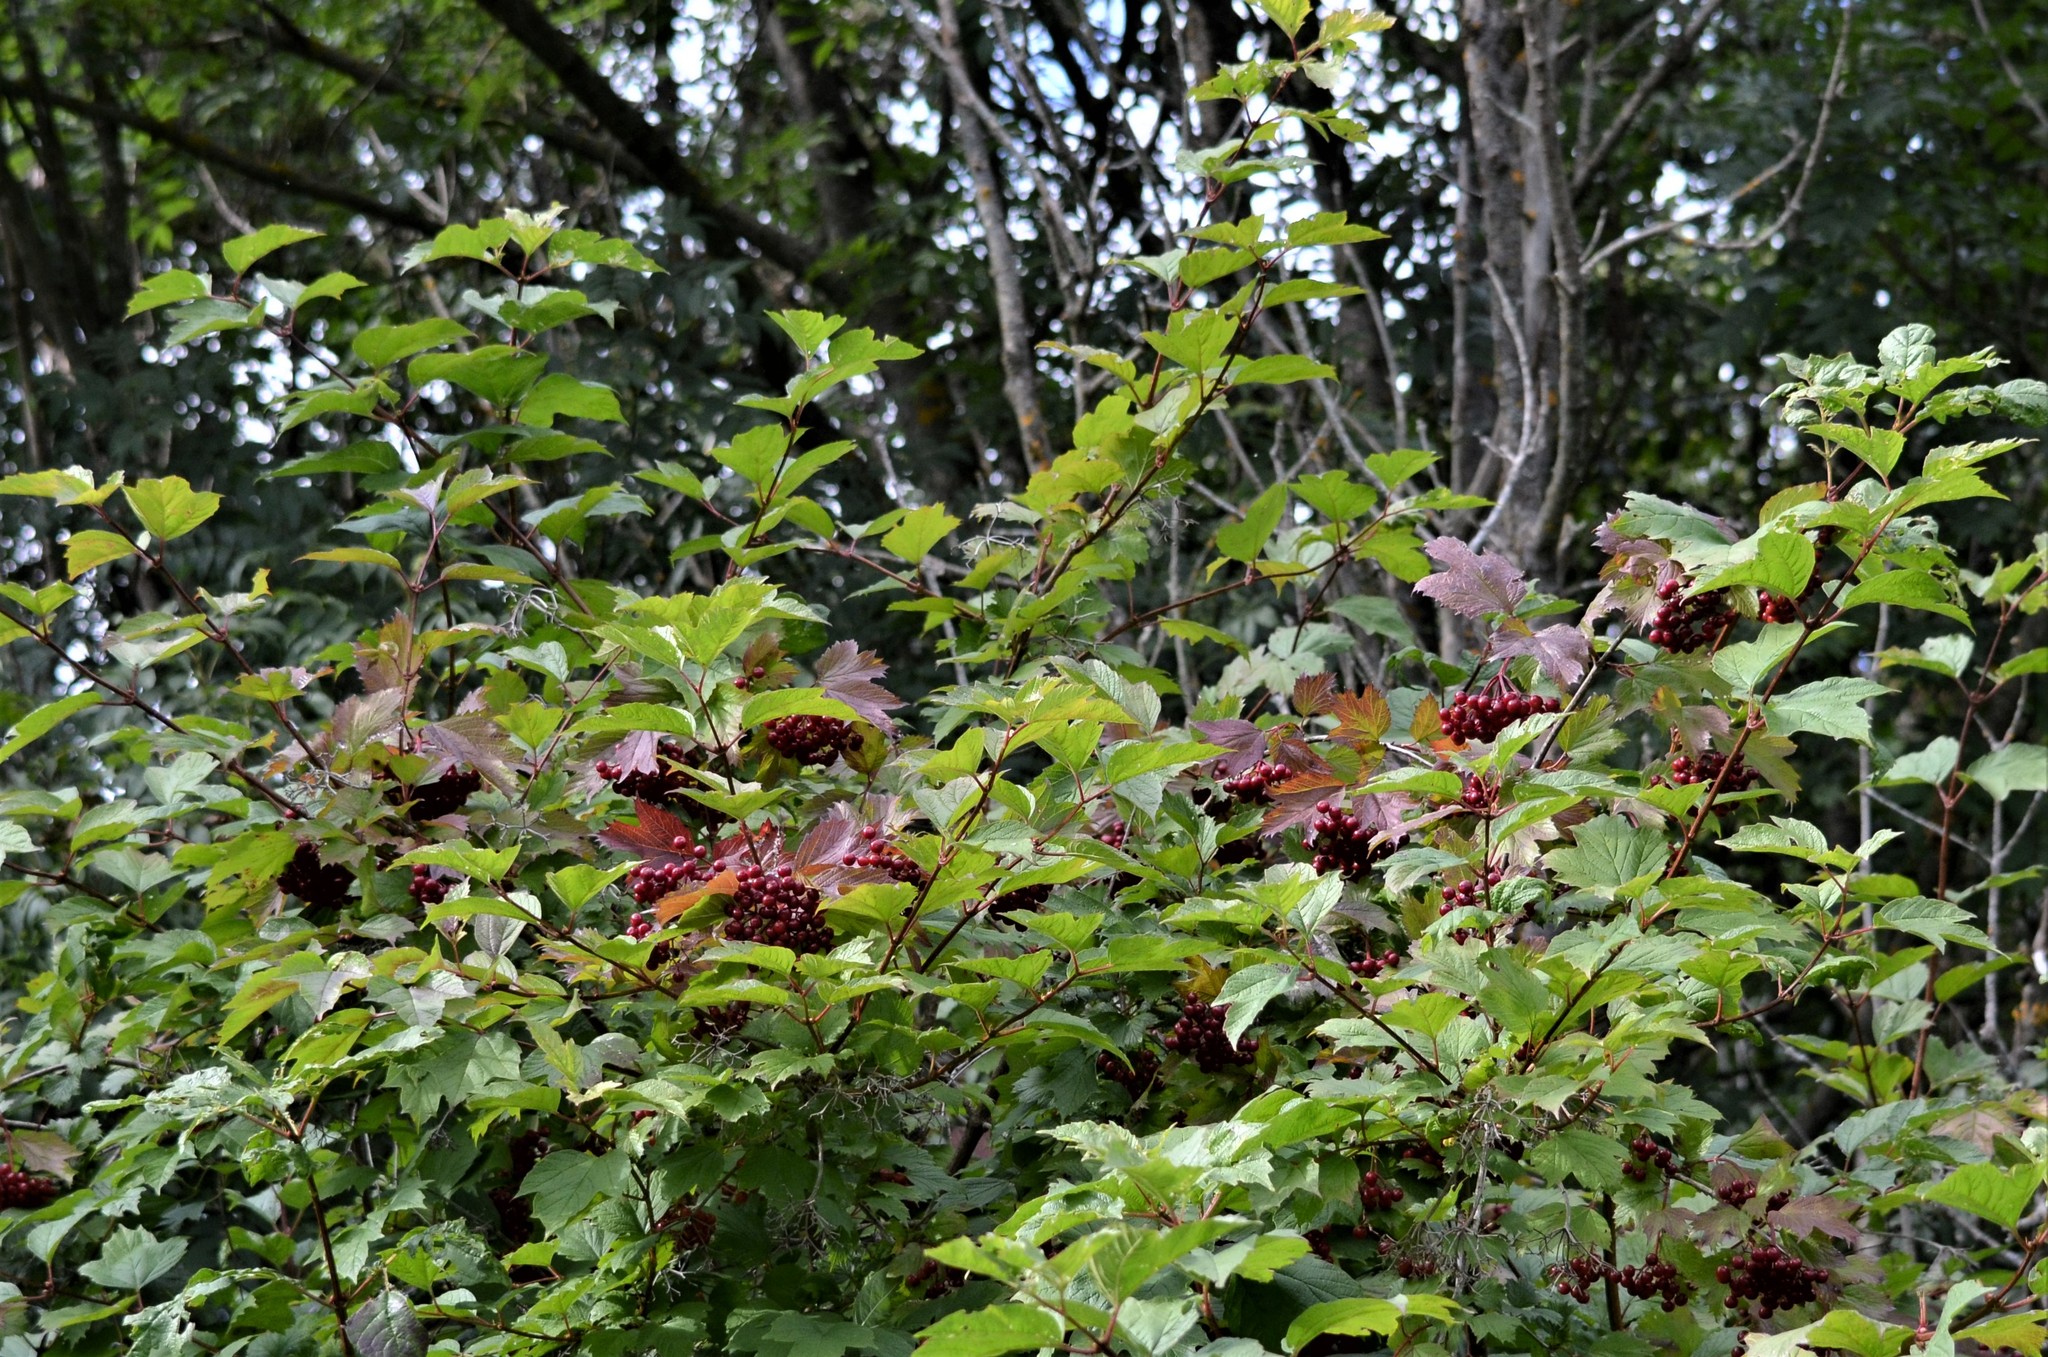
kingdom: Plantae
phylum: Tracheophyta
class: Magnoliopsida
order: Dipsacales
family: Viburnaceae
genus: Viburnum
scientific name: Viburnum opulus
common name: Guelder-rose
